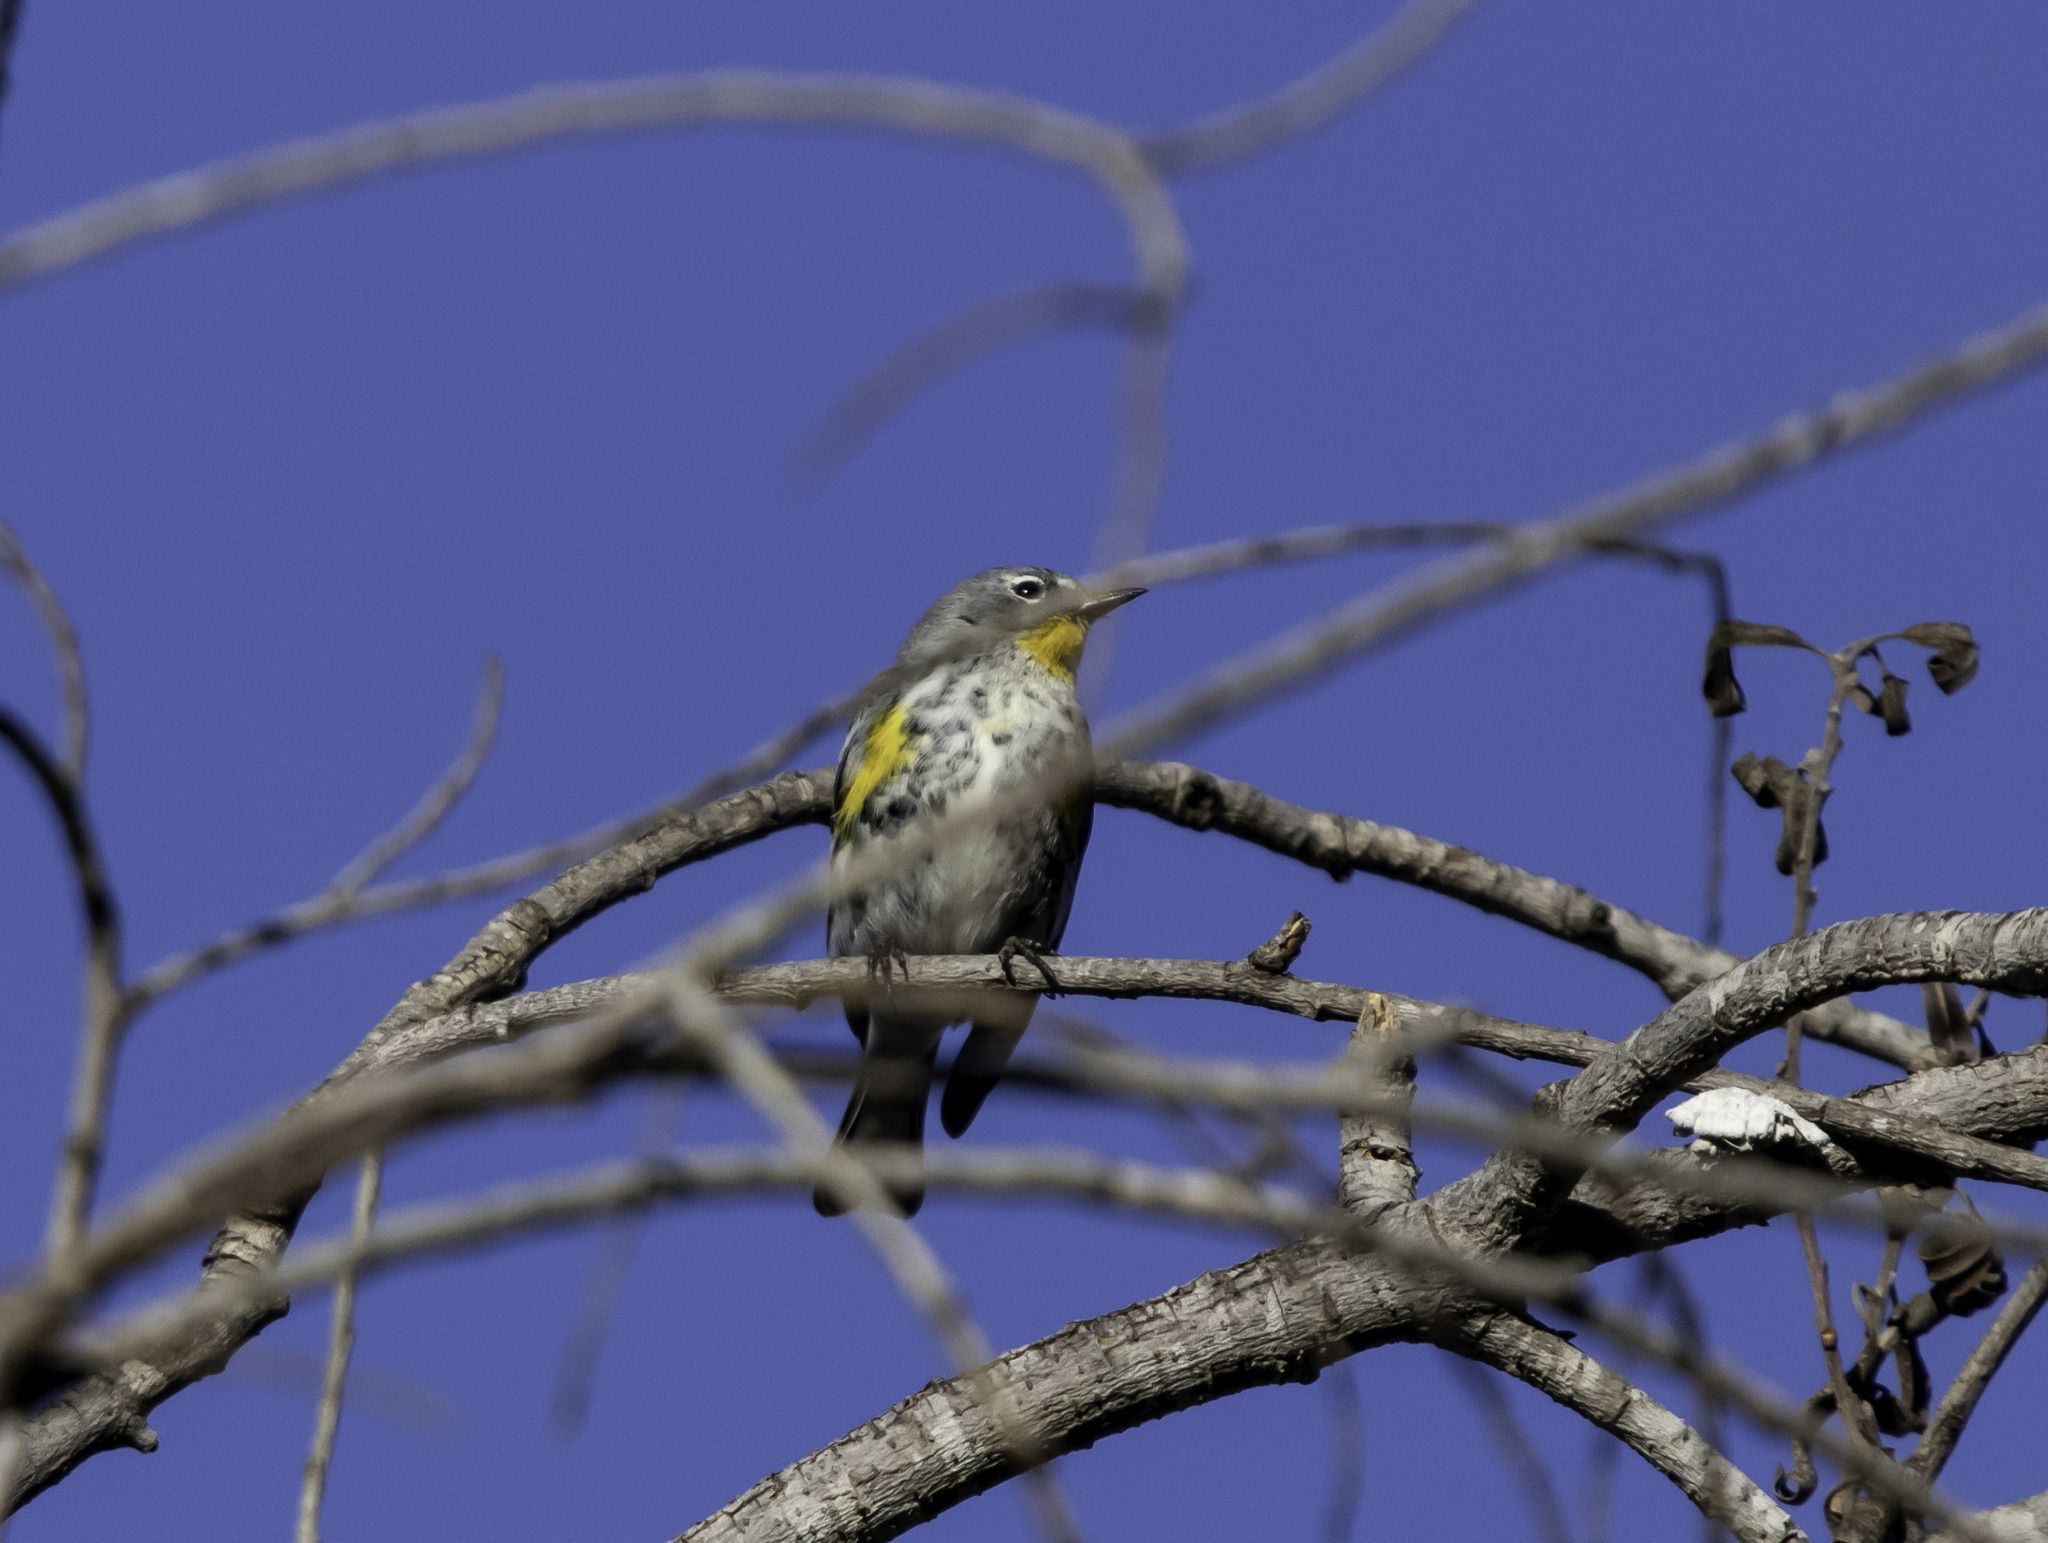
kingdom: Animalia
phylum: Chordata
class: Aves
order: Passeriformes
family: Parulidae
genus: Setophaga
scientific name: Setophaga coronata
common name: Myrtle warbler
